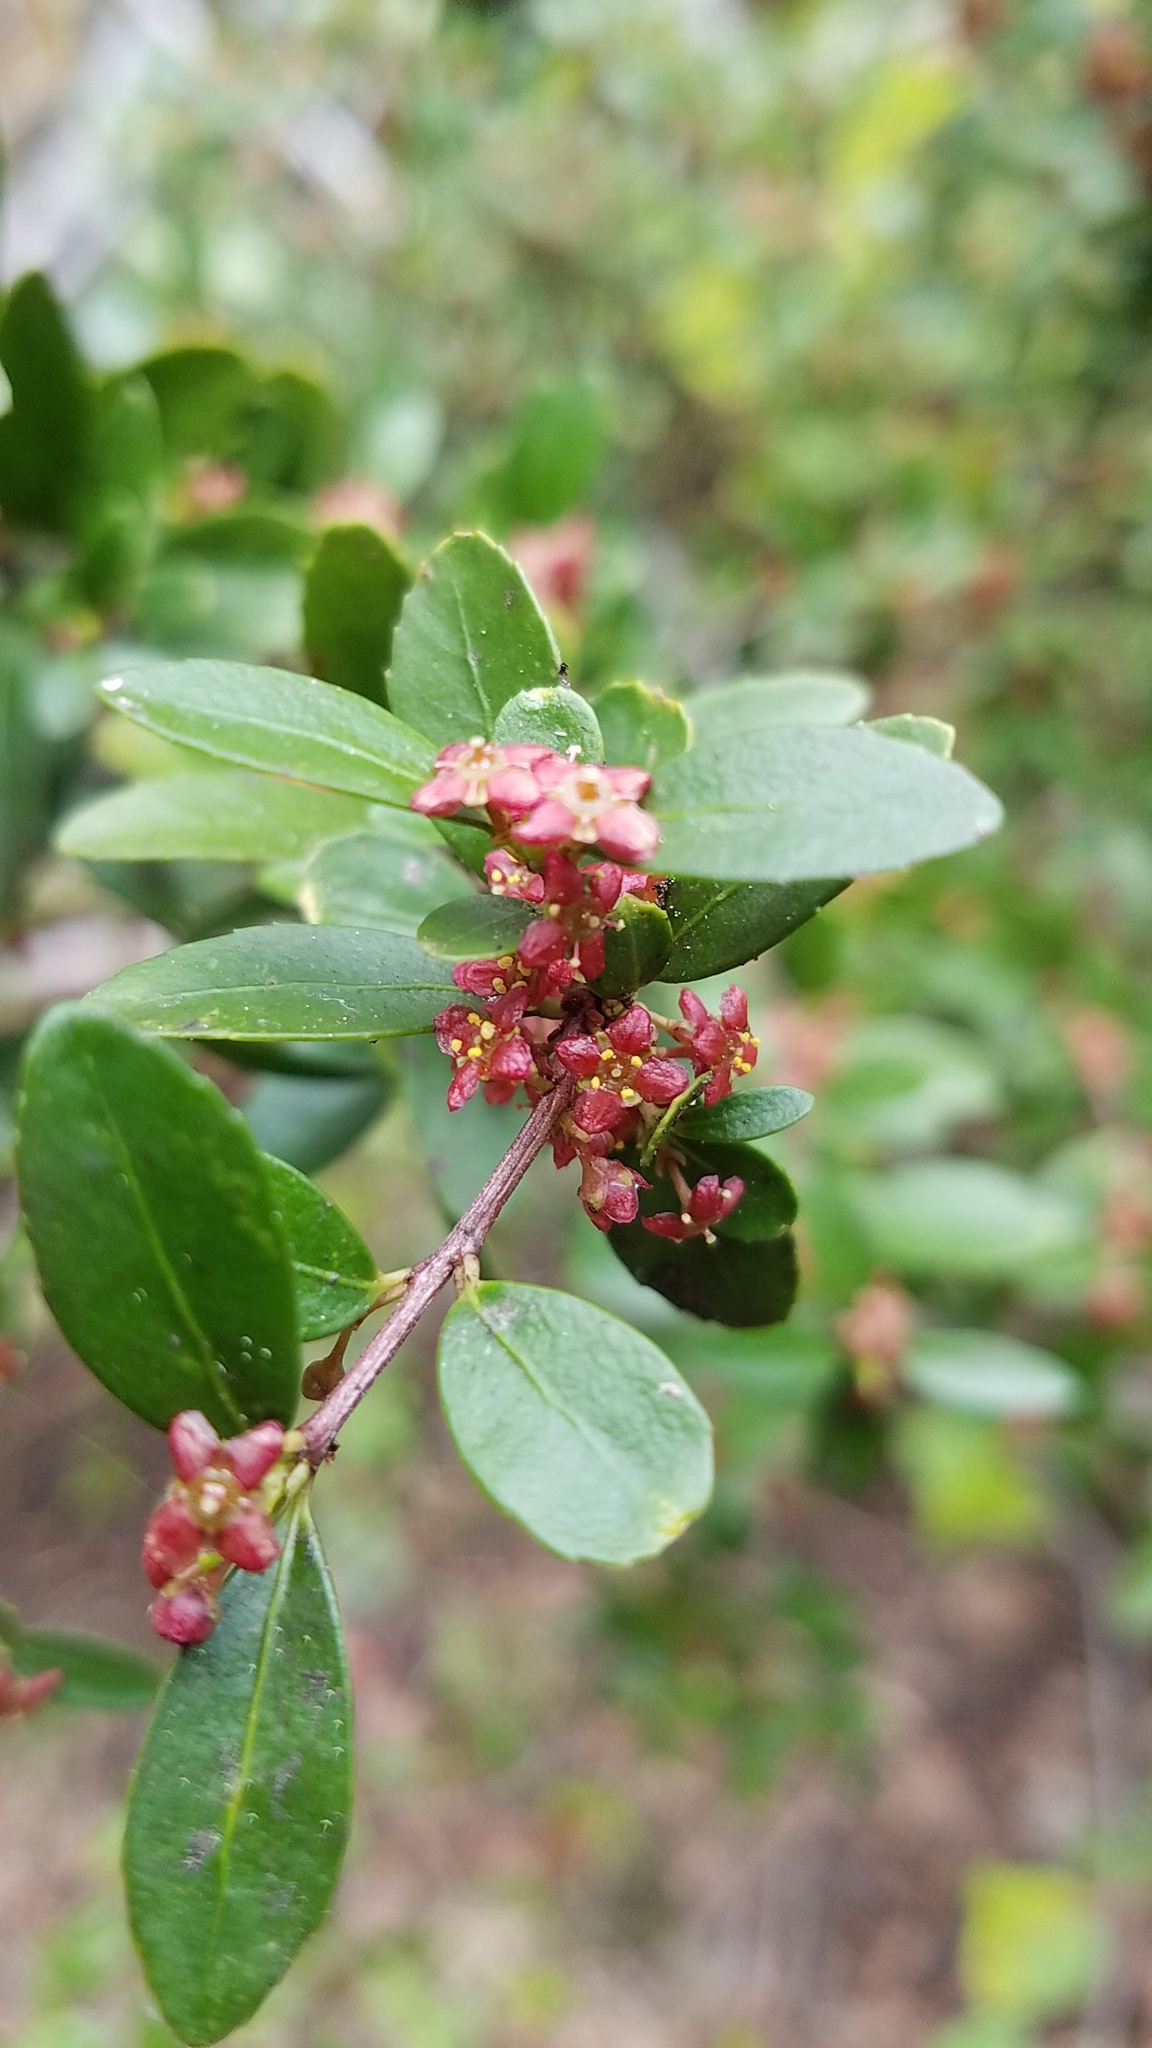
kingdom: Plantae
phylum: Tracheophyta
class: Magnoliopsida
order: Celastrales
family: Celastraceae
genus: Paxistima
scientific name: Paxistima myrsinites
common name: Mountain-lover
